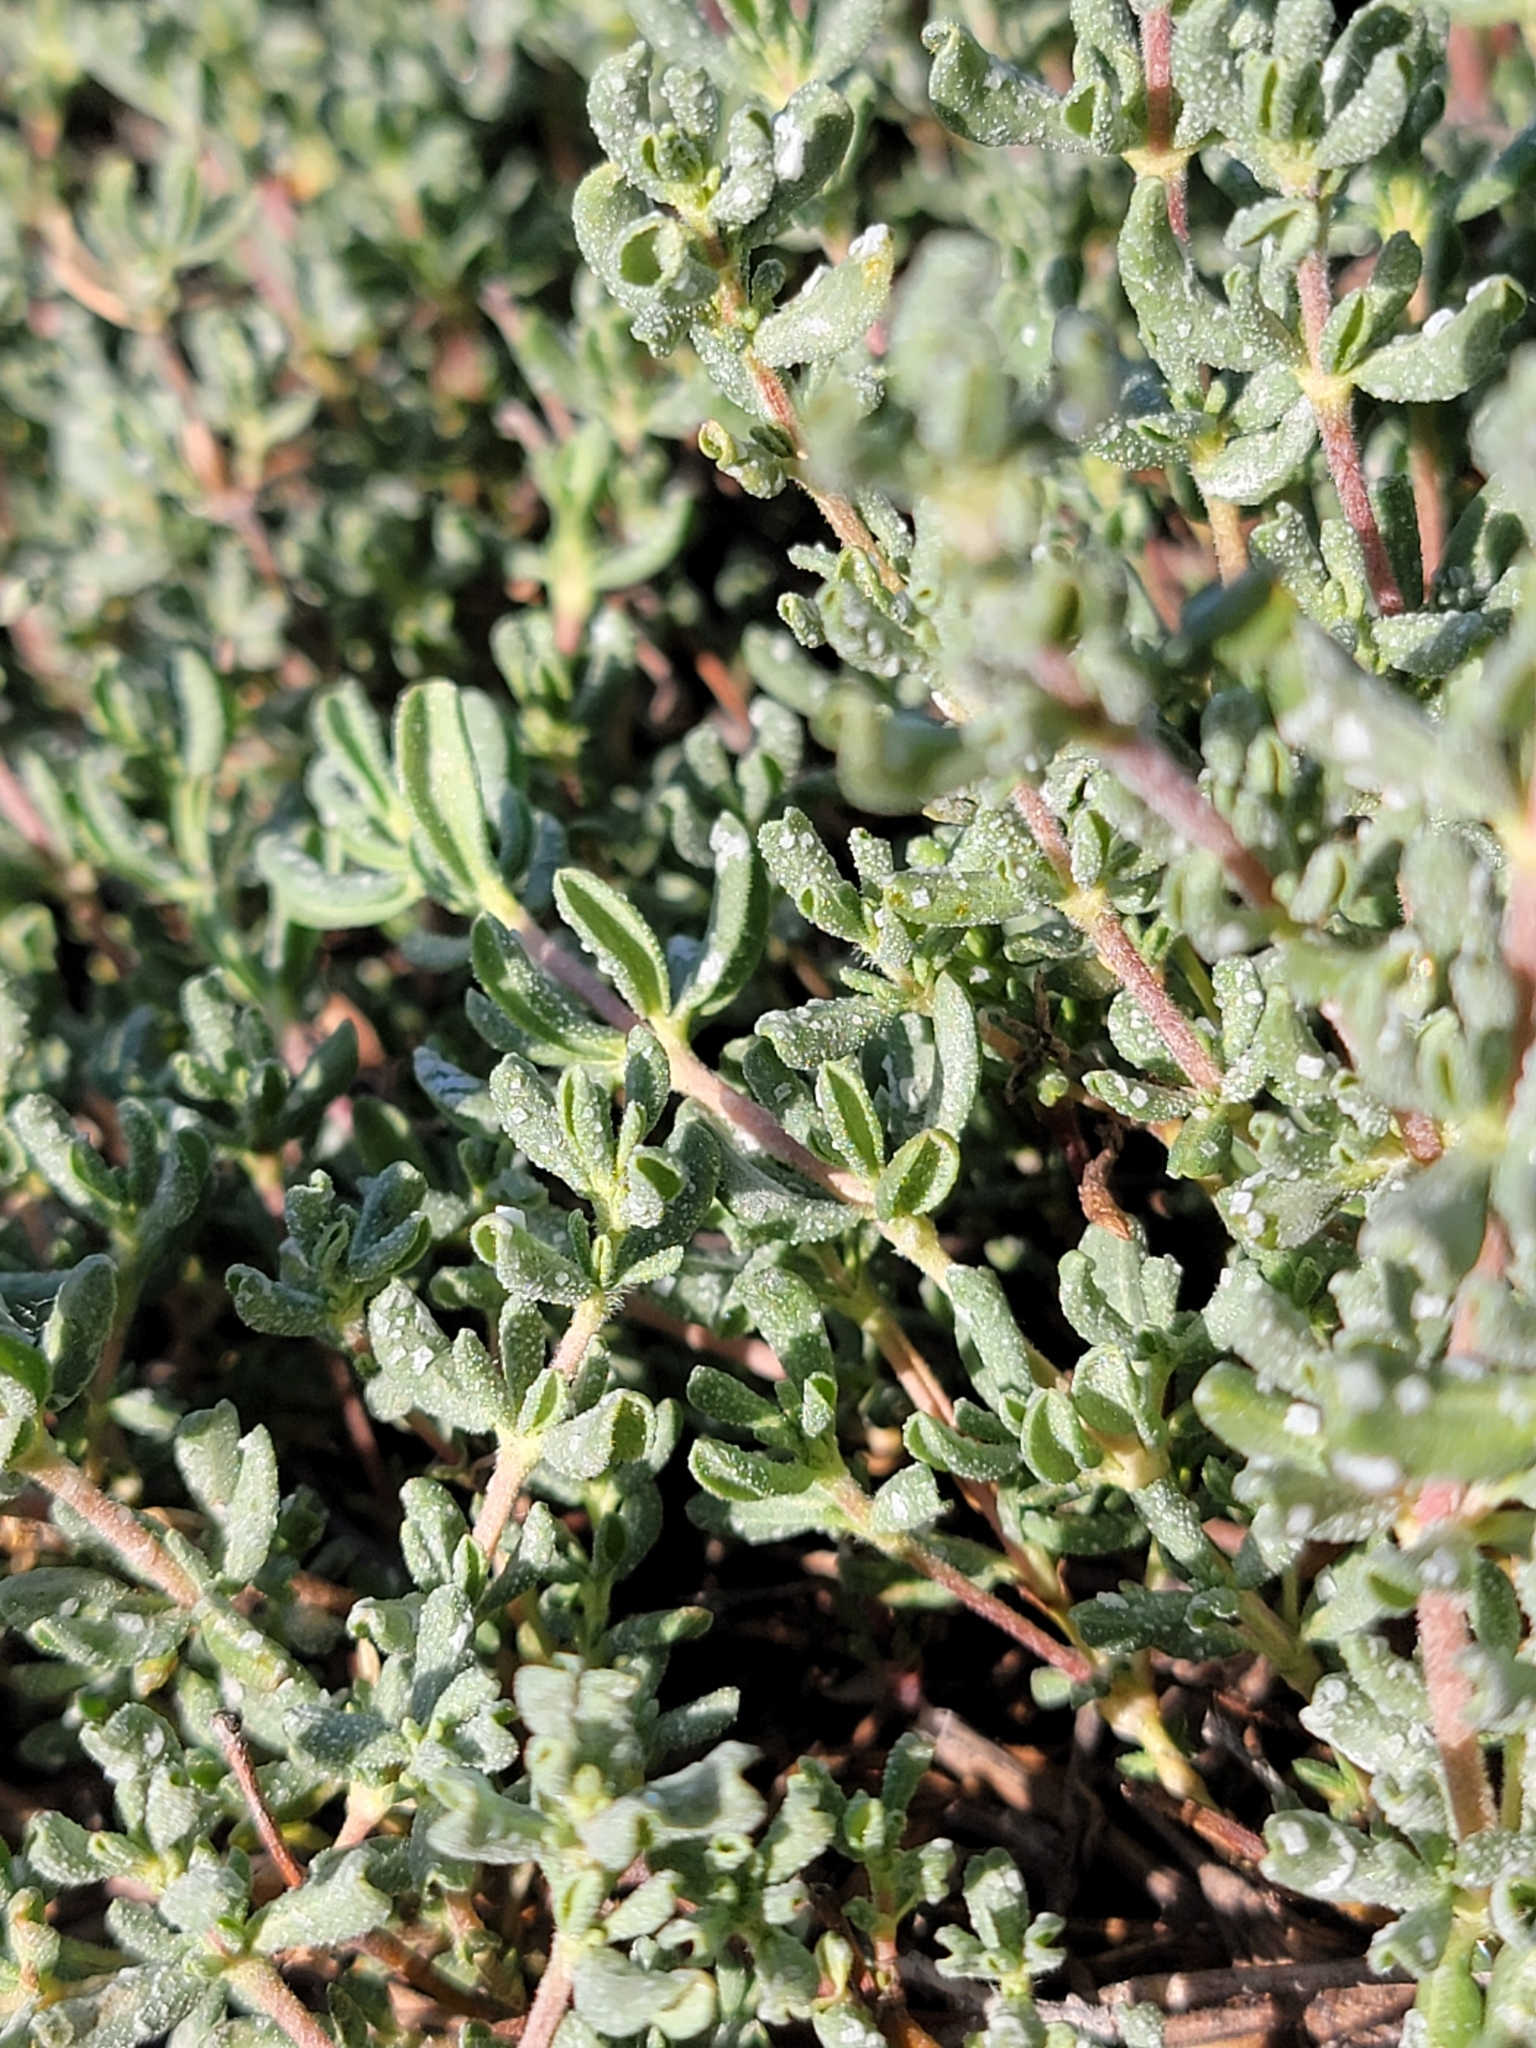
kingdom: Plantae
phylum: Tracheophyta
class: Magnoliopsida
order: Caryophyllales
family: Frankeniaceae
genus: Frankenia
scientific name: Frankenia salina
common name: Alkali seaheath
